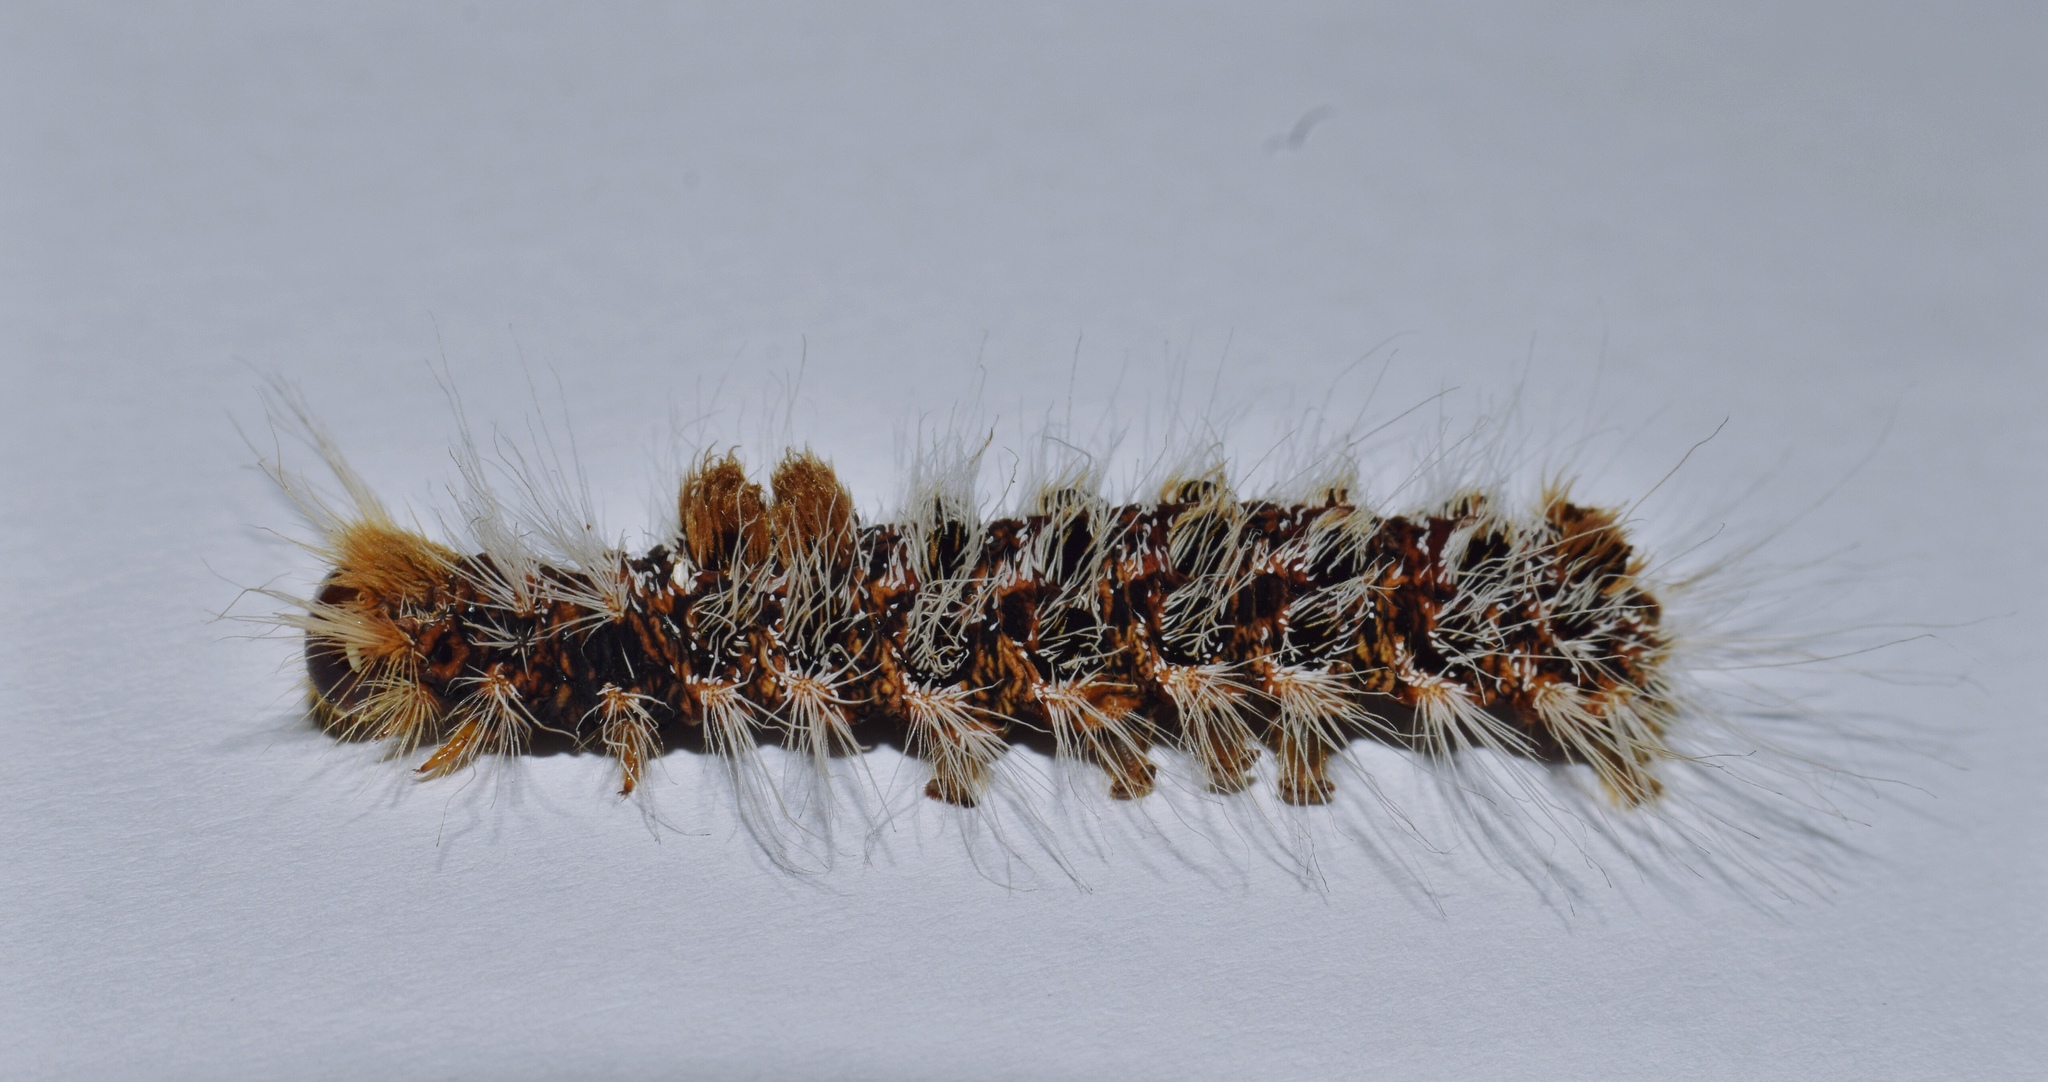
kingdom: Animalia
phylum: Arthropoda
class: Insecta
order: Lepidoptera
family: Erebidae
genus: Euproctis
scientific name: Euproctis rufopunctata
